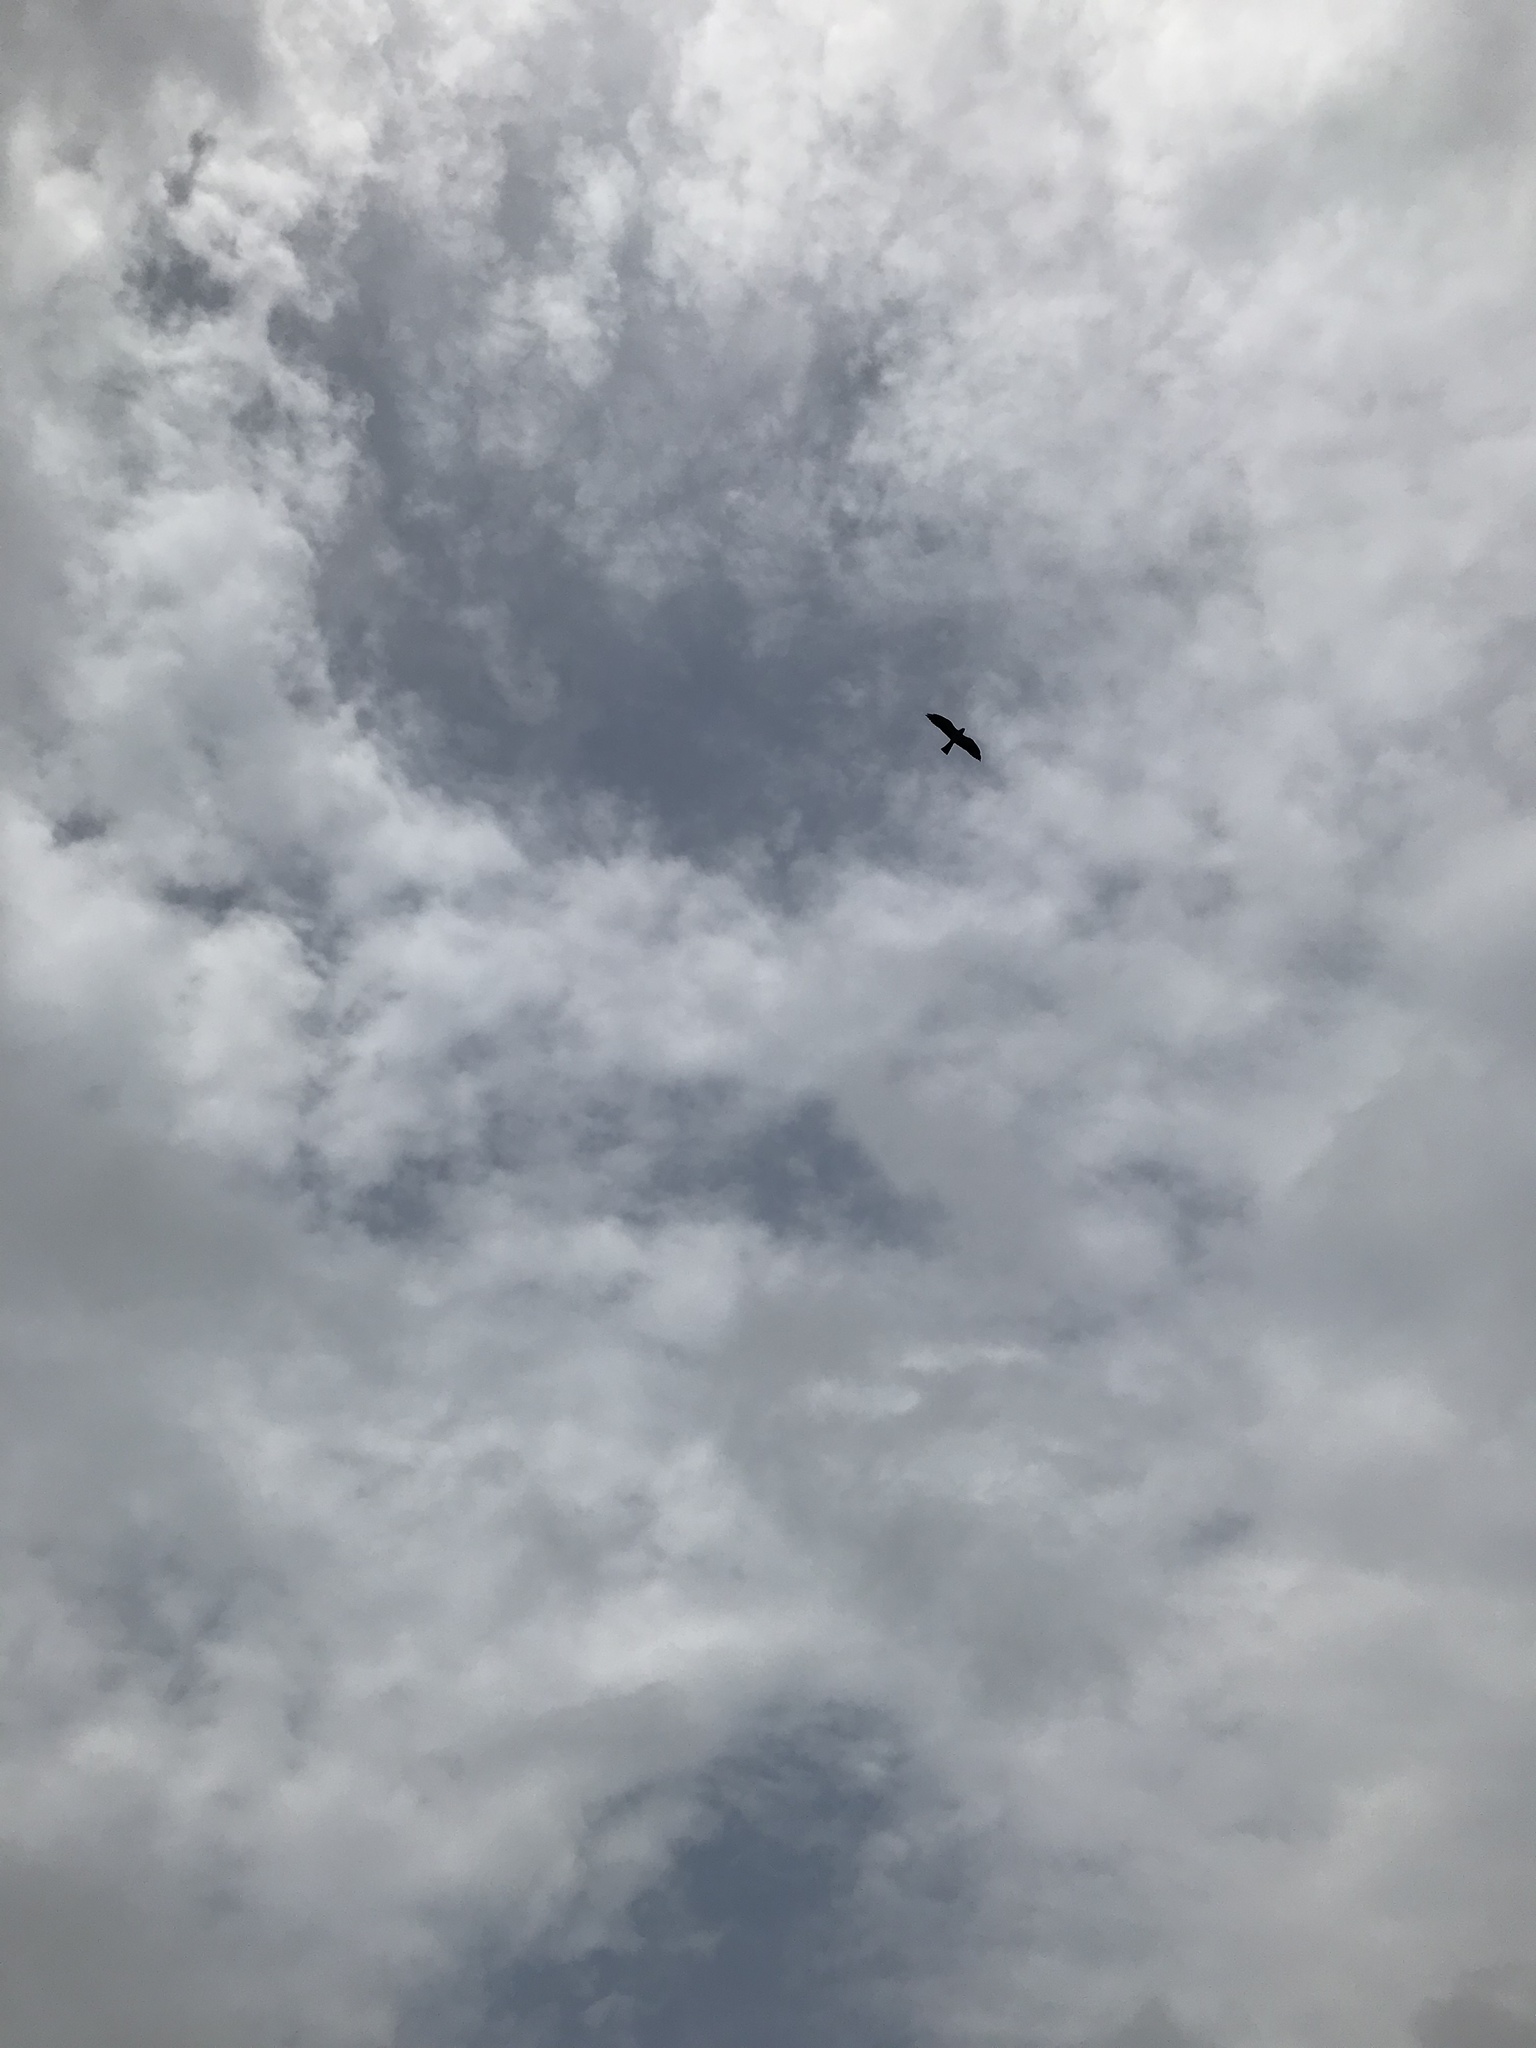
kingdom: Animalia
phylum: Chordata
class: Aves
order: Accipitriformes
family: Accipitridae
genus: Ictinia
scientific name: Ictinia mississippiensis
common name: Mississippi kite
